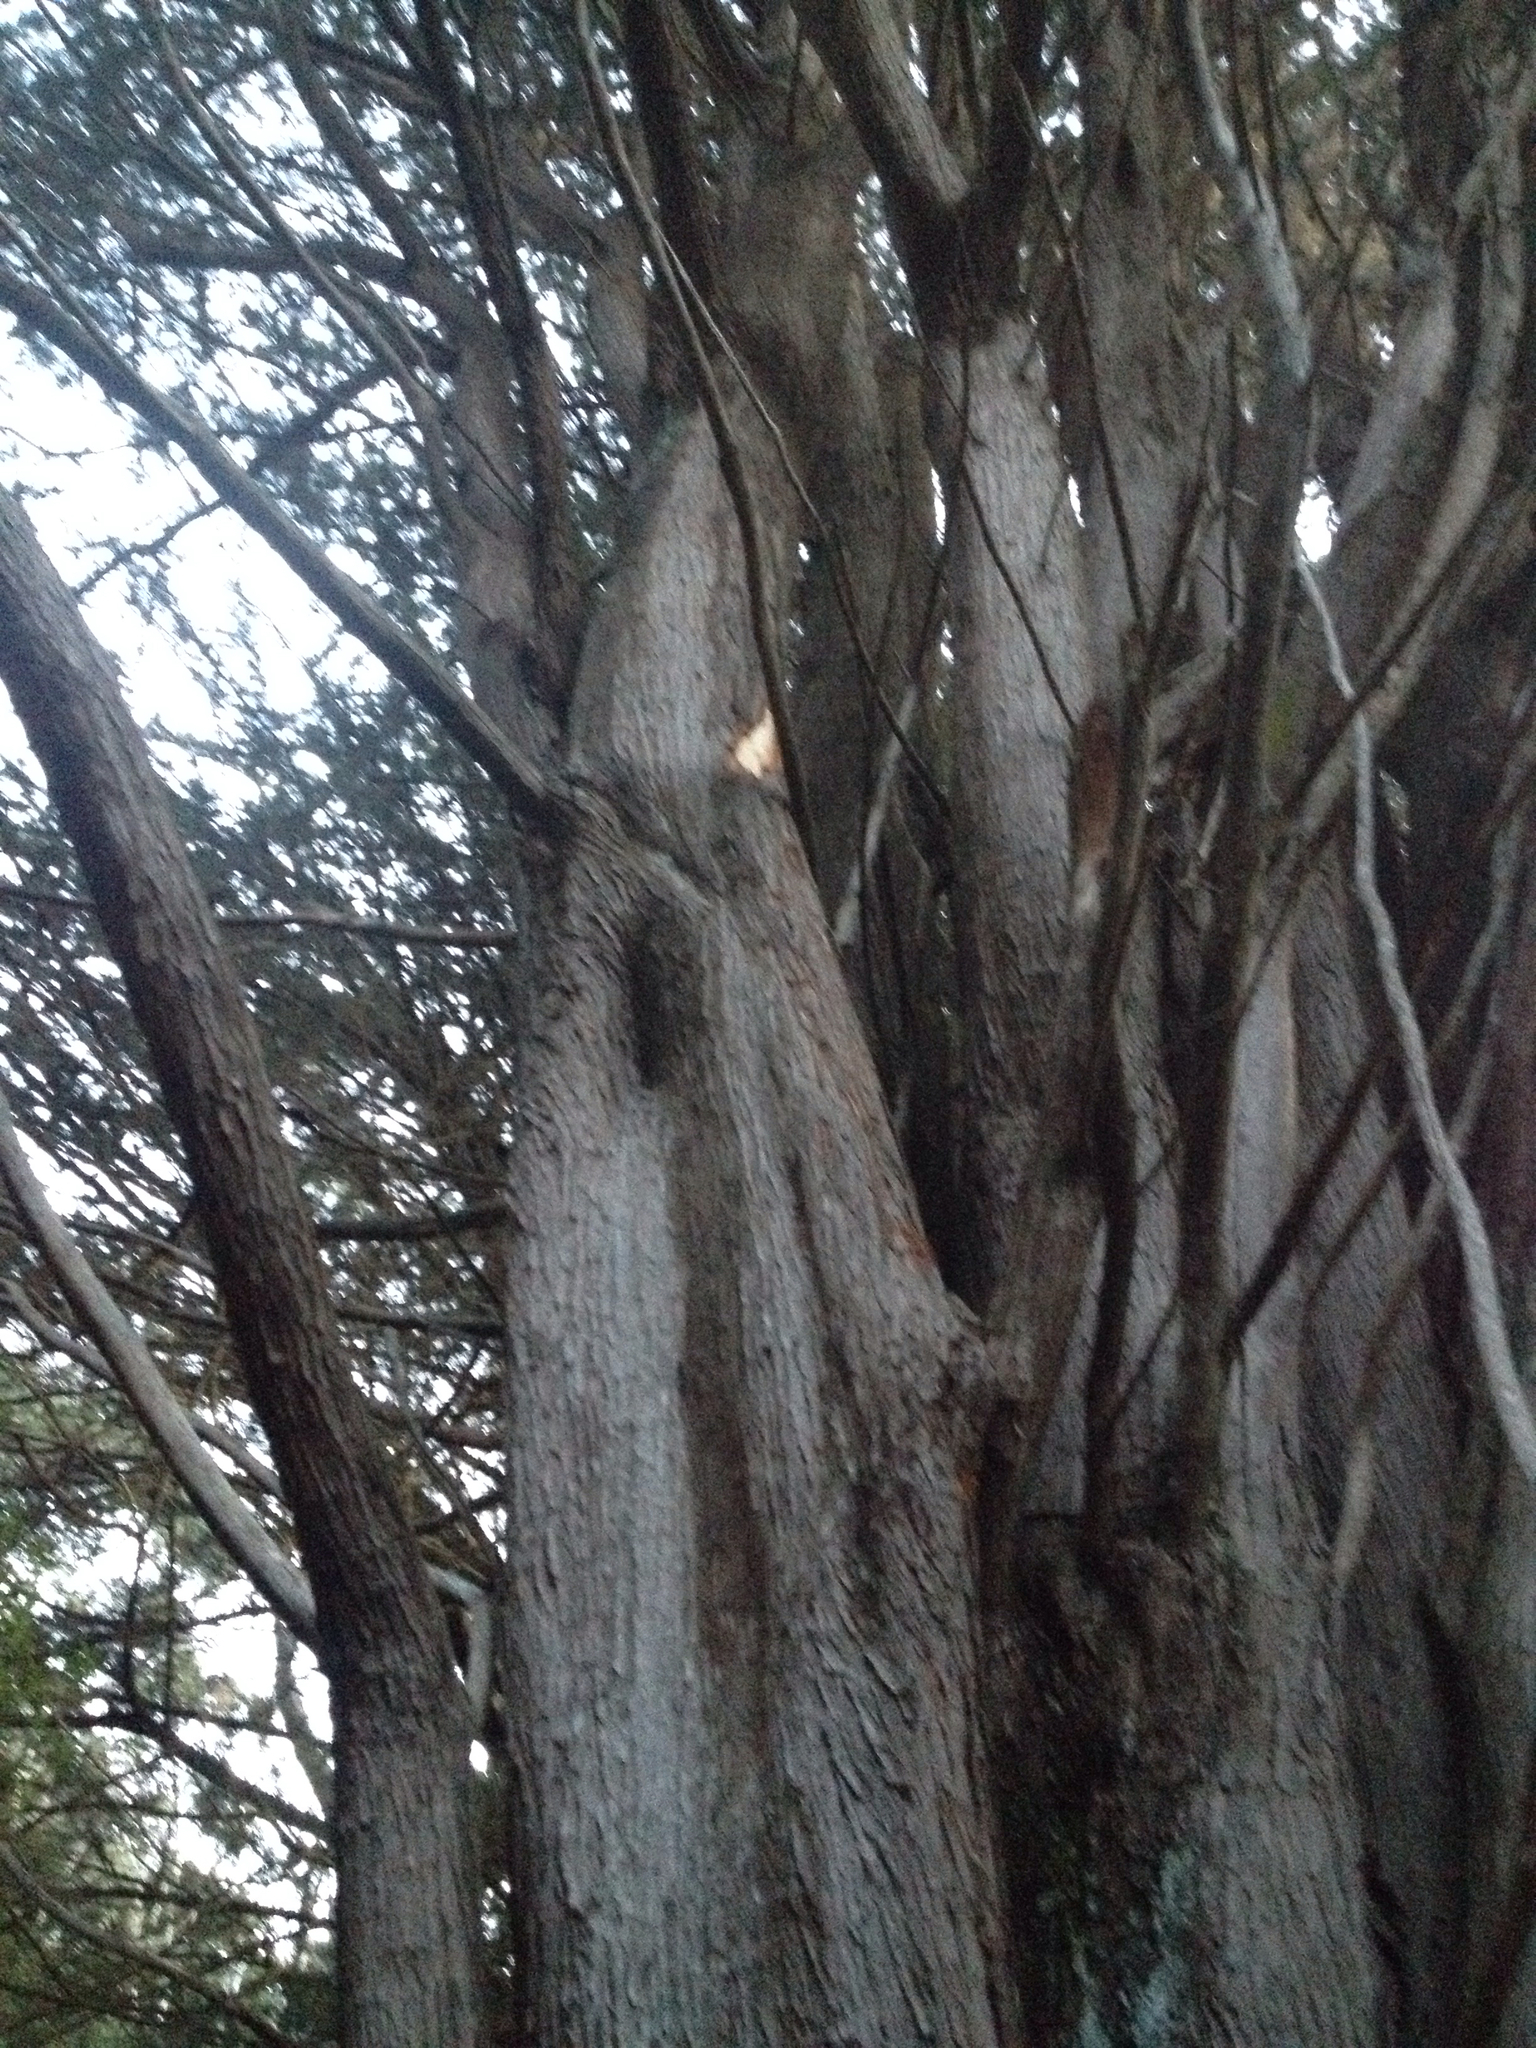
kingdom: Animalia
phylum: Chordata
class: Aves
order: Psittaciformes
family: Psittacidae
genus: Nestor
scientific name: Nestor meridionalis
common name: New zealand kaka
